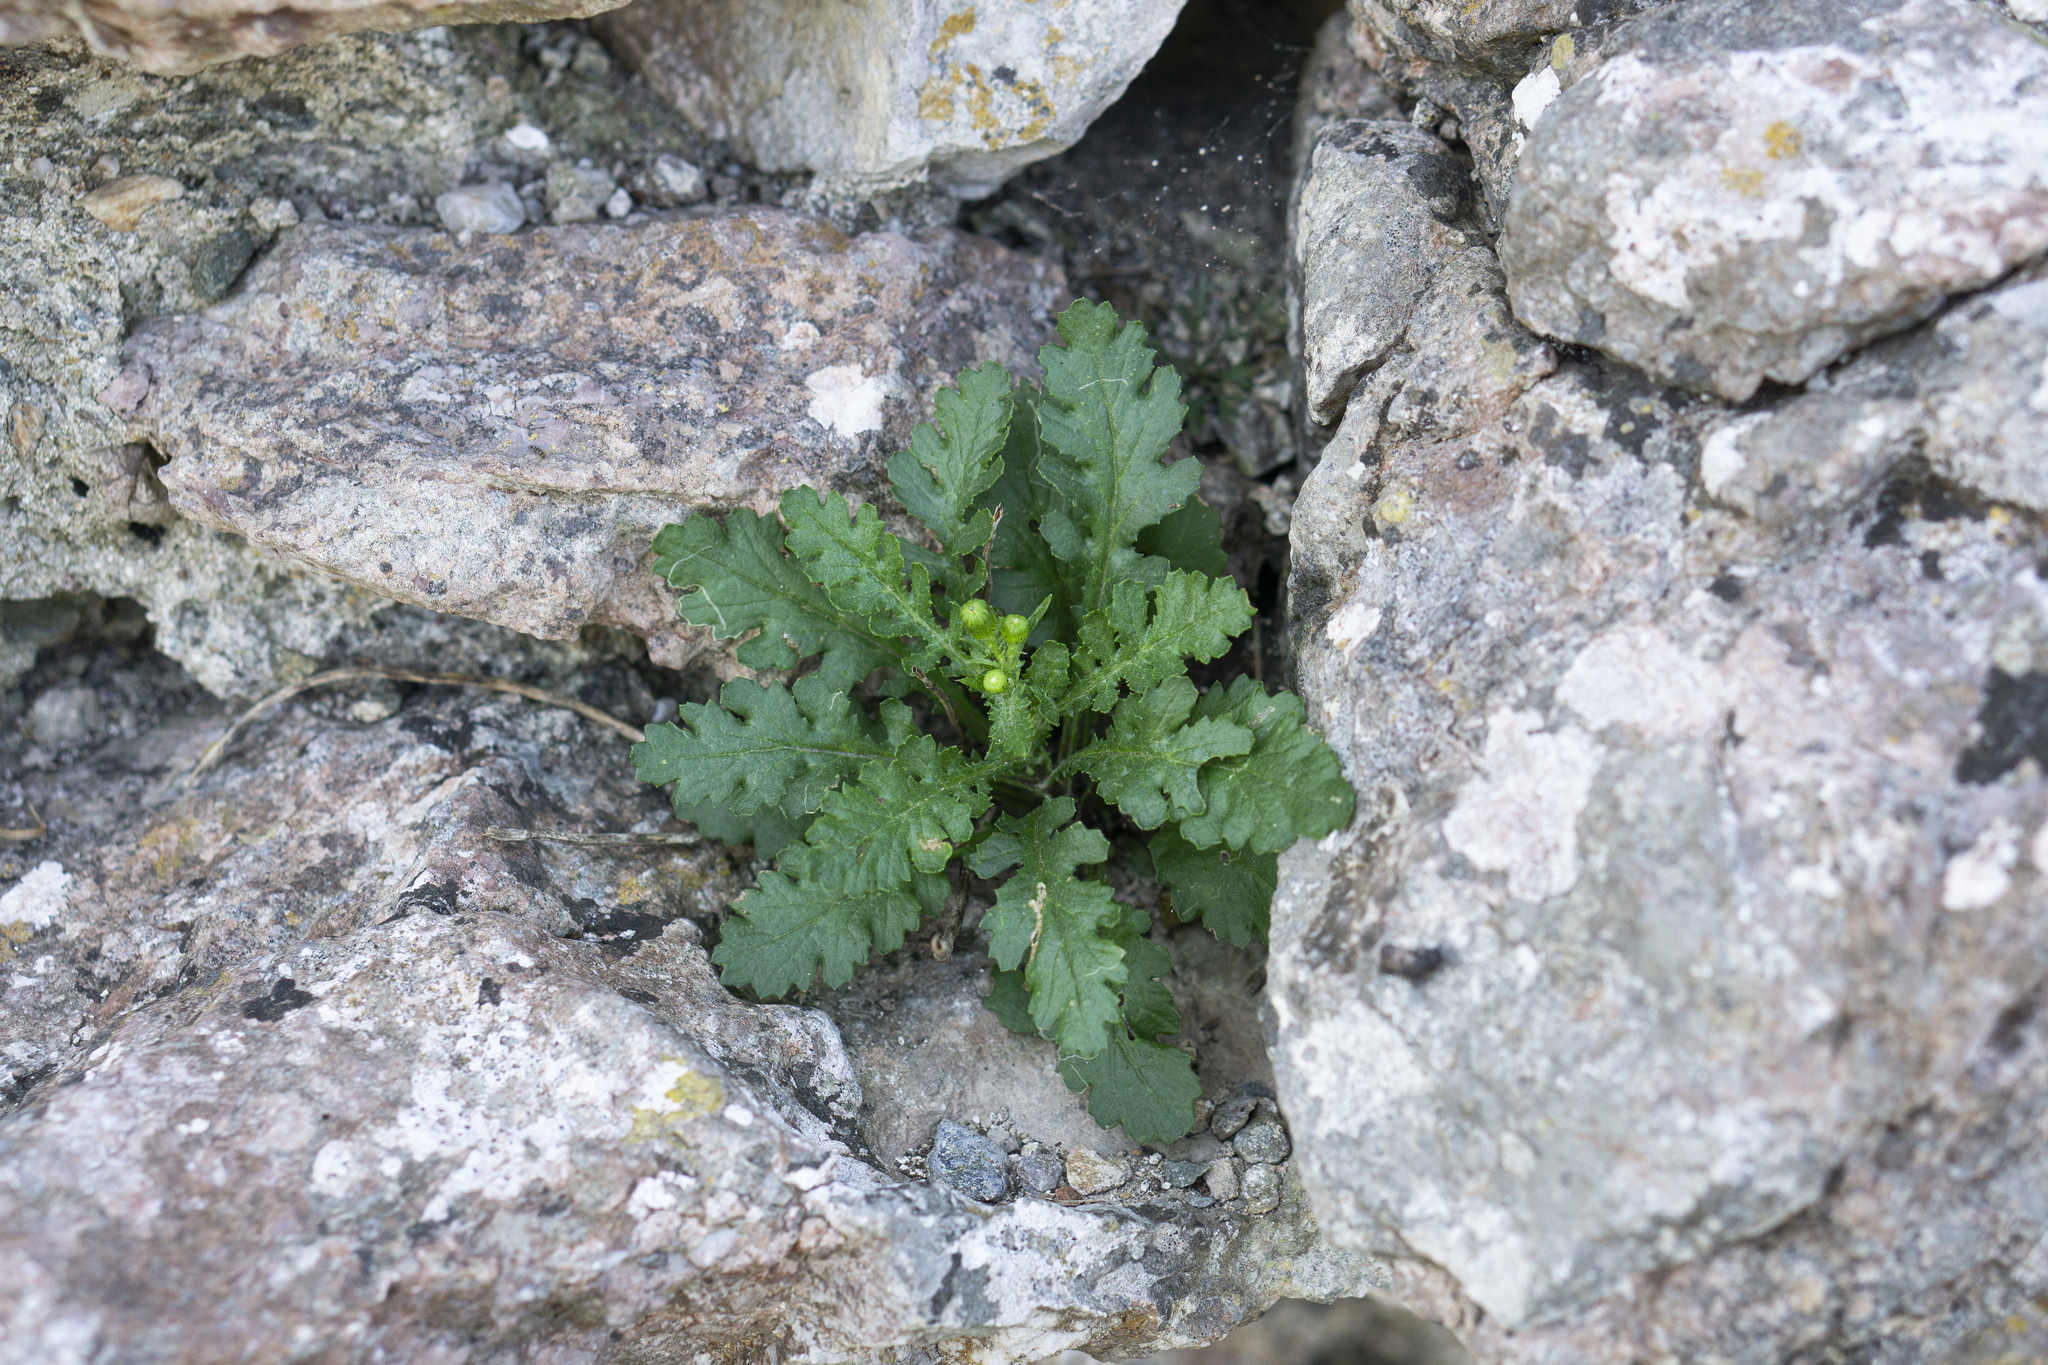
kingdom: Plantae
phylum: Tracheophyta
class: Magnoliopsida
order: Asterales
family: Asteraceae
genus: Senecio
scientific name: Senecio rupestris
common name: Rock ragwort
